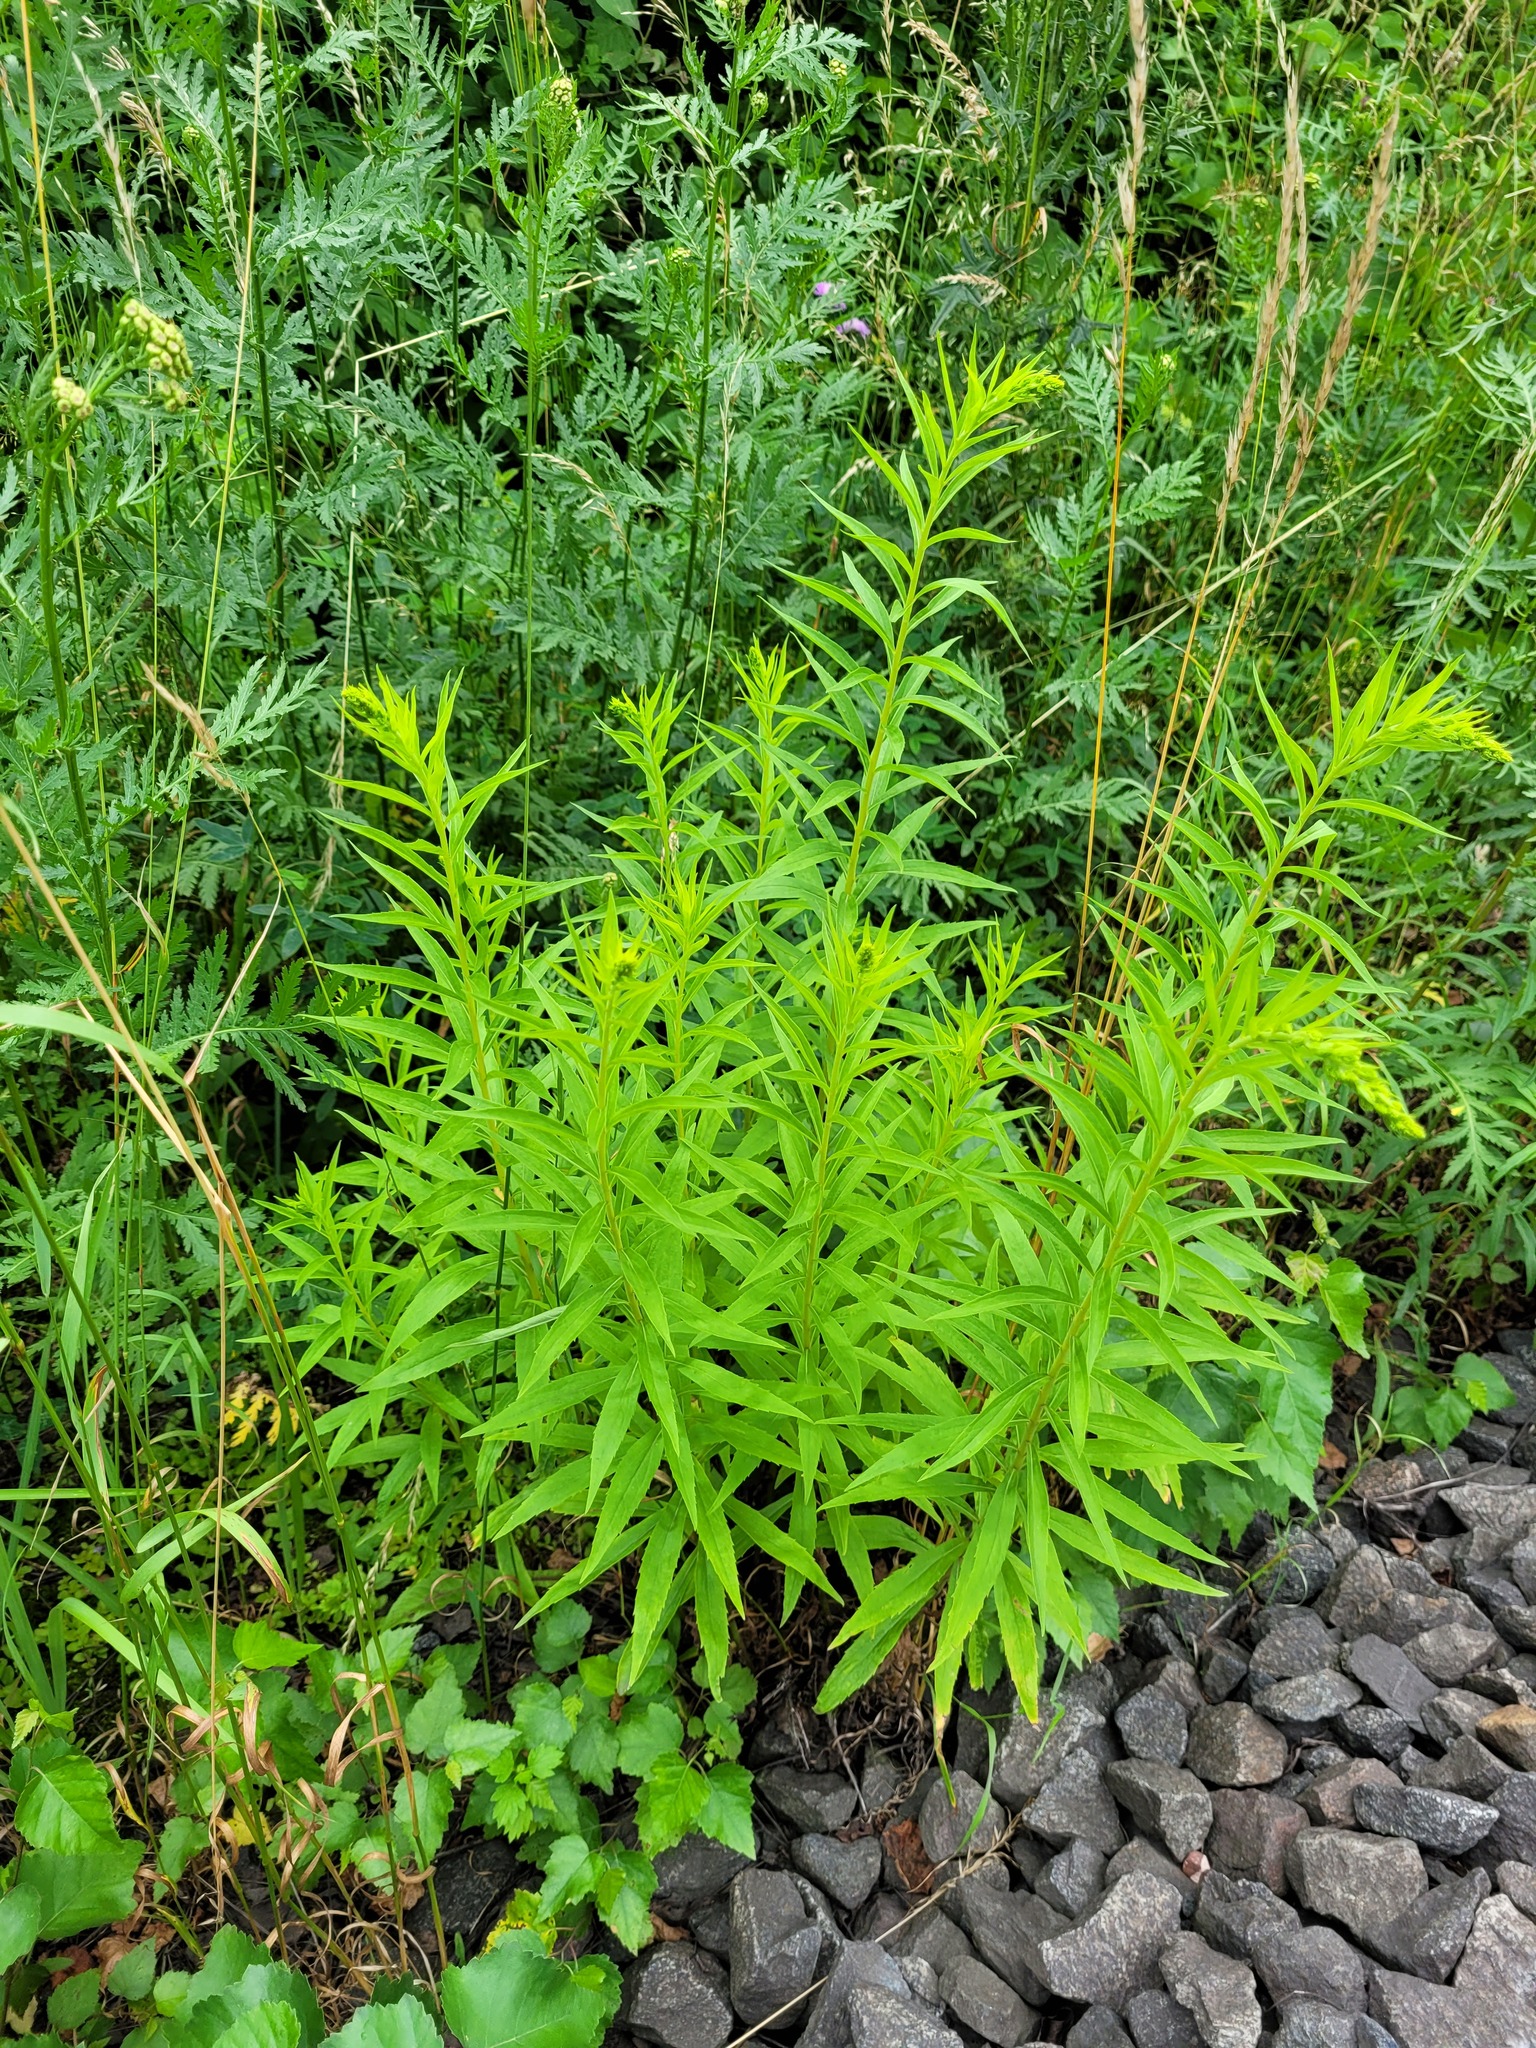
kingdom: Plantae
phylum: Tracheophyta
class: Magnoliopsida
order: Asterales
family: Asteraceae
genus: Solidago
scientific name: Solidago canadensis
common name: Canada goldenrod
